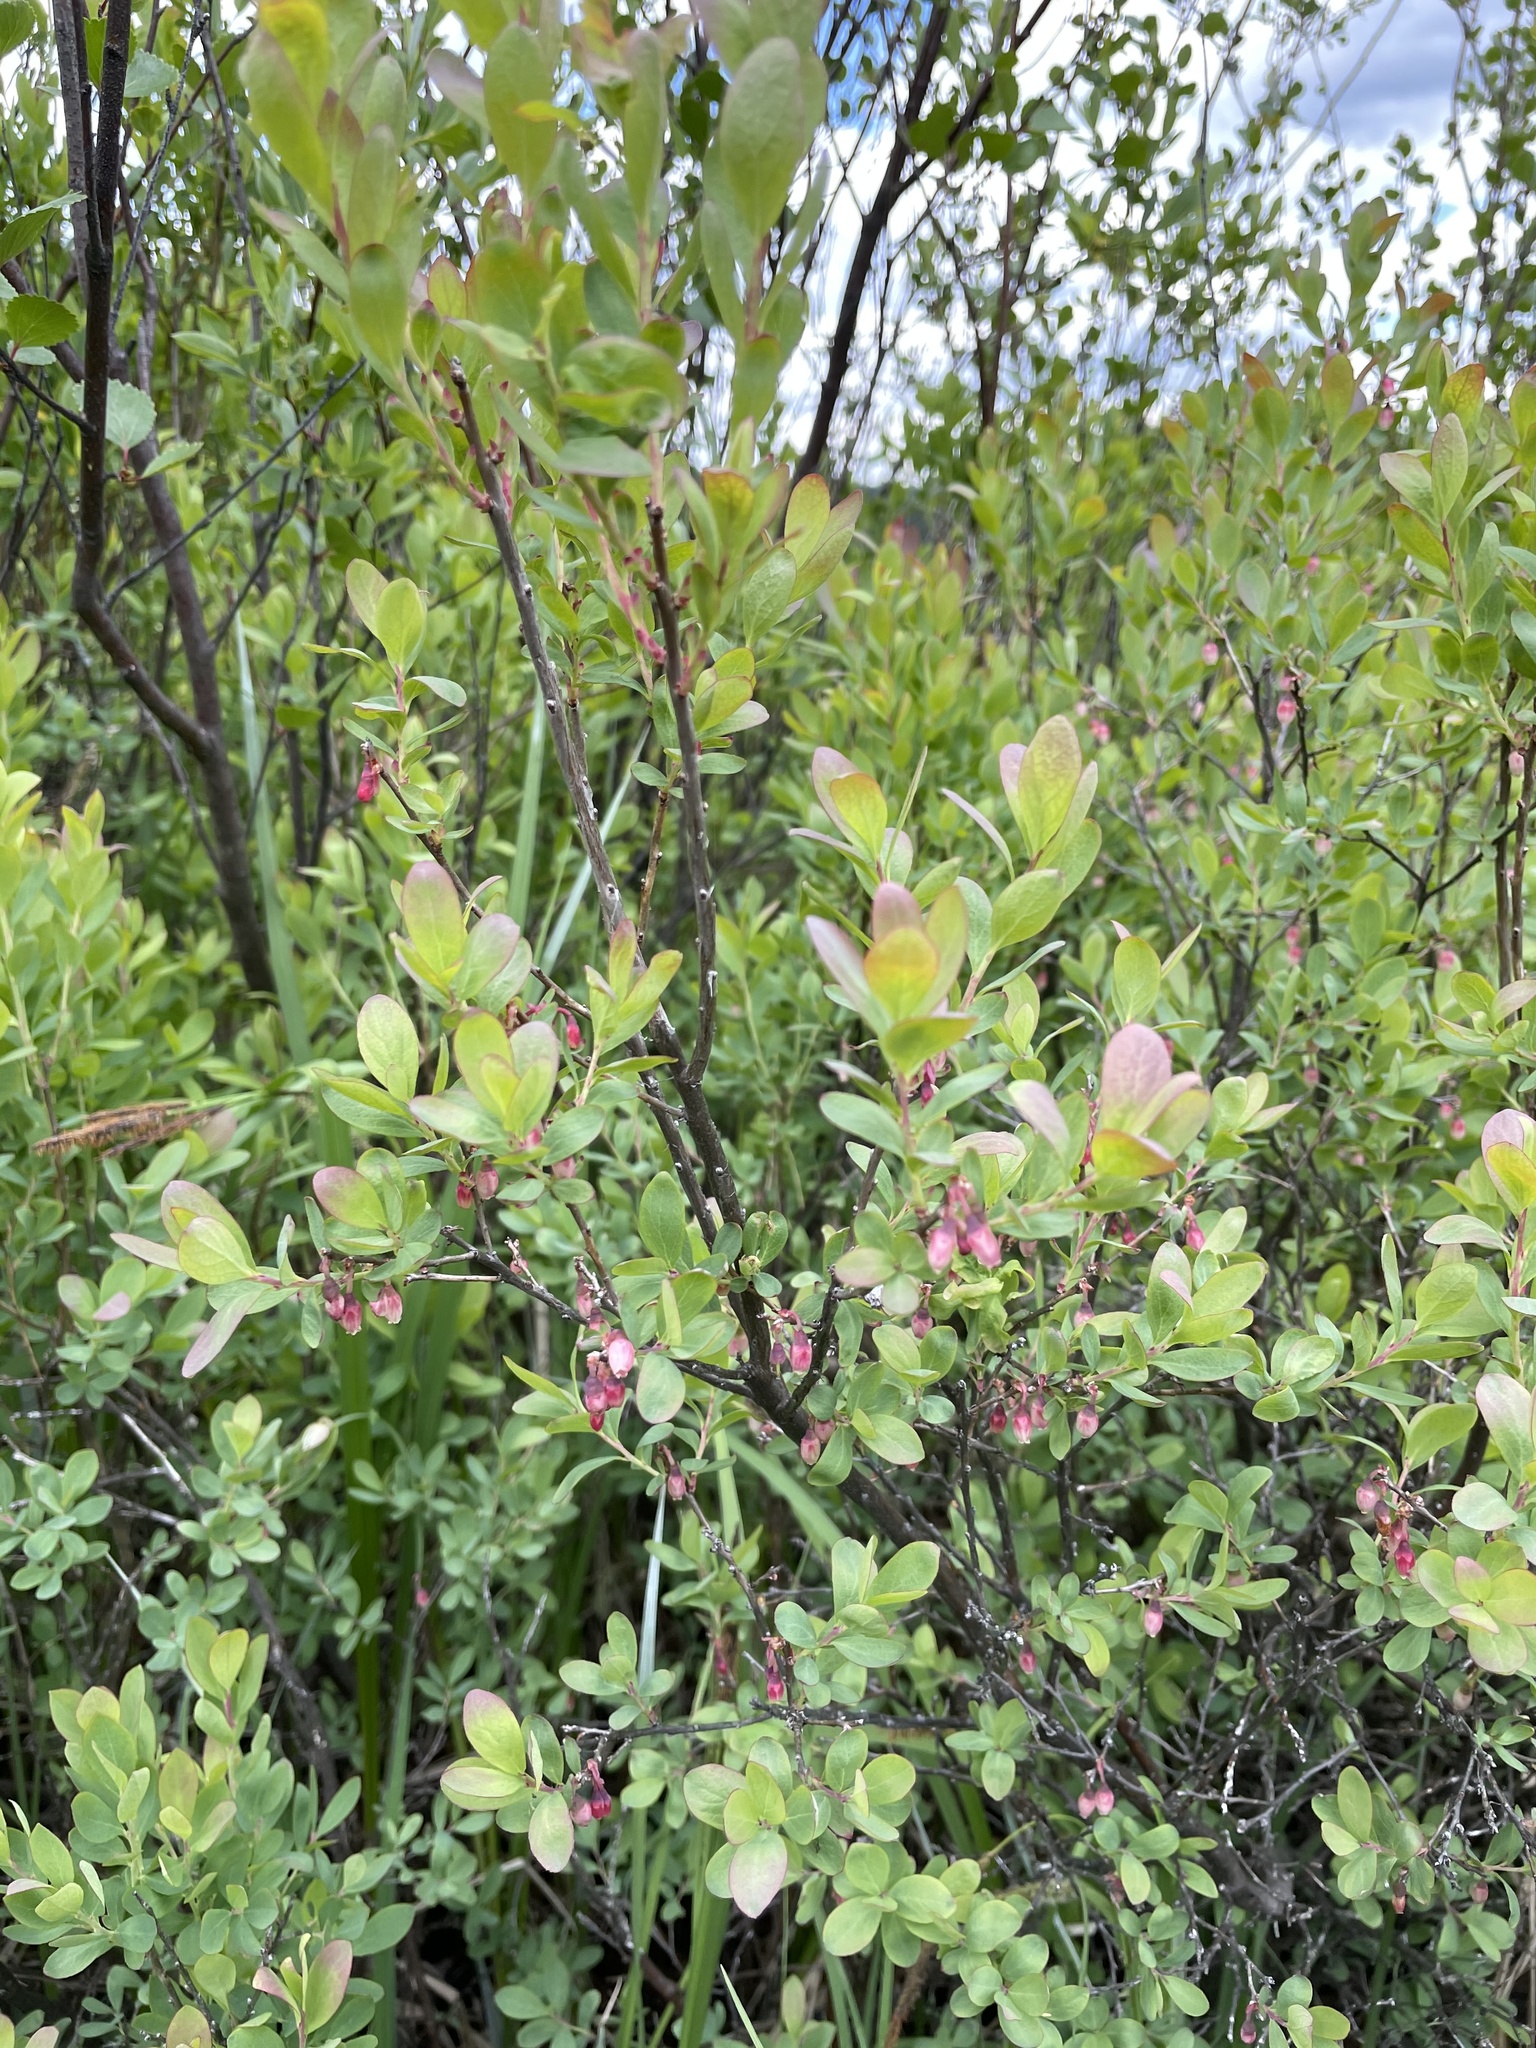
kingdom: Plantae
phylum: Tracheophyta
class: Magnoliopsida
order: Ericales
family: Ericaceae
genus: Vaccinium
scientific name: Vaccinium uliginosum
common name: Bog bilberry
